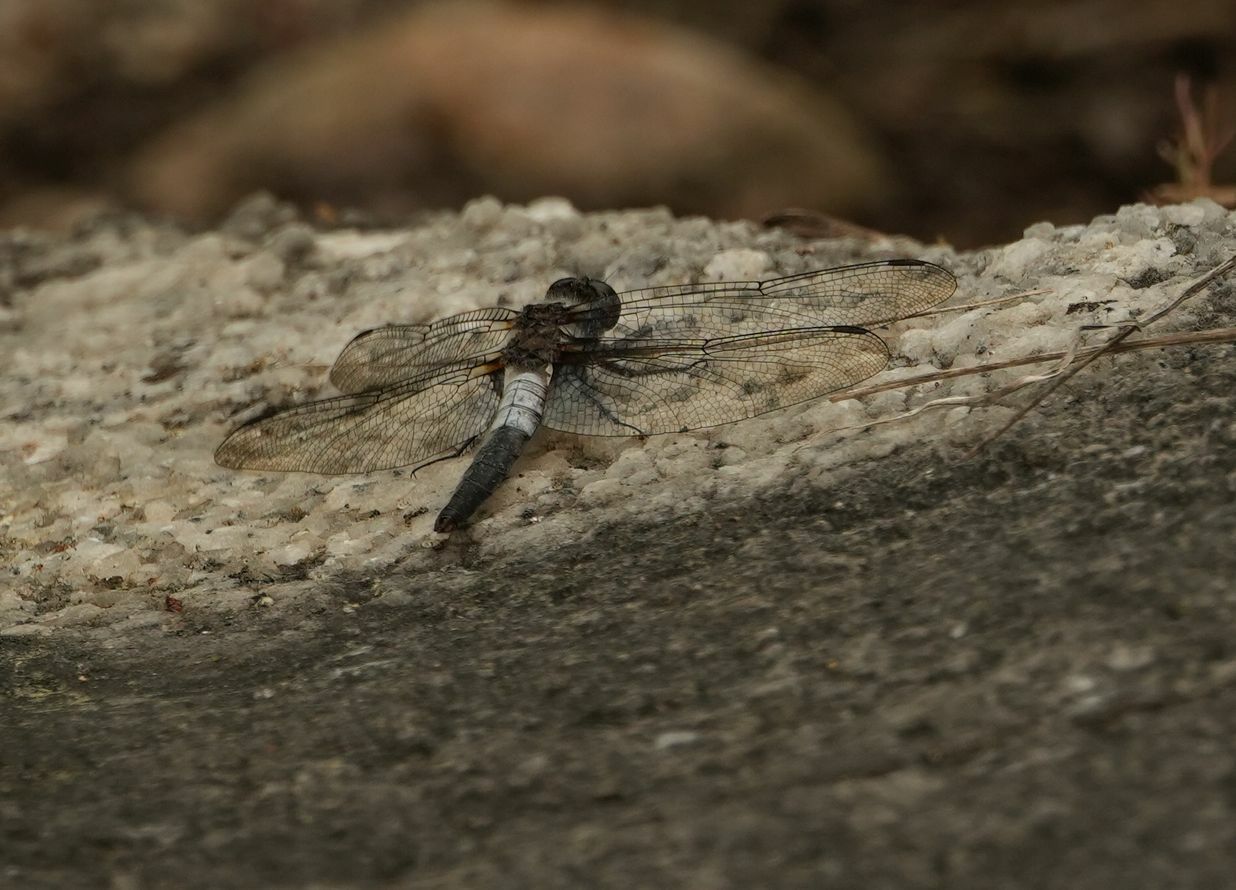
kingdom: Animalia
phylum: Arthropoda
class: Insecta
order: Odonata
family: Libellulidae
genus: Ladona
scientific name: Ladona julia
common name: Chalk-fronted corporal
